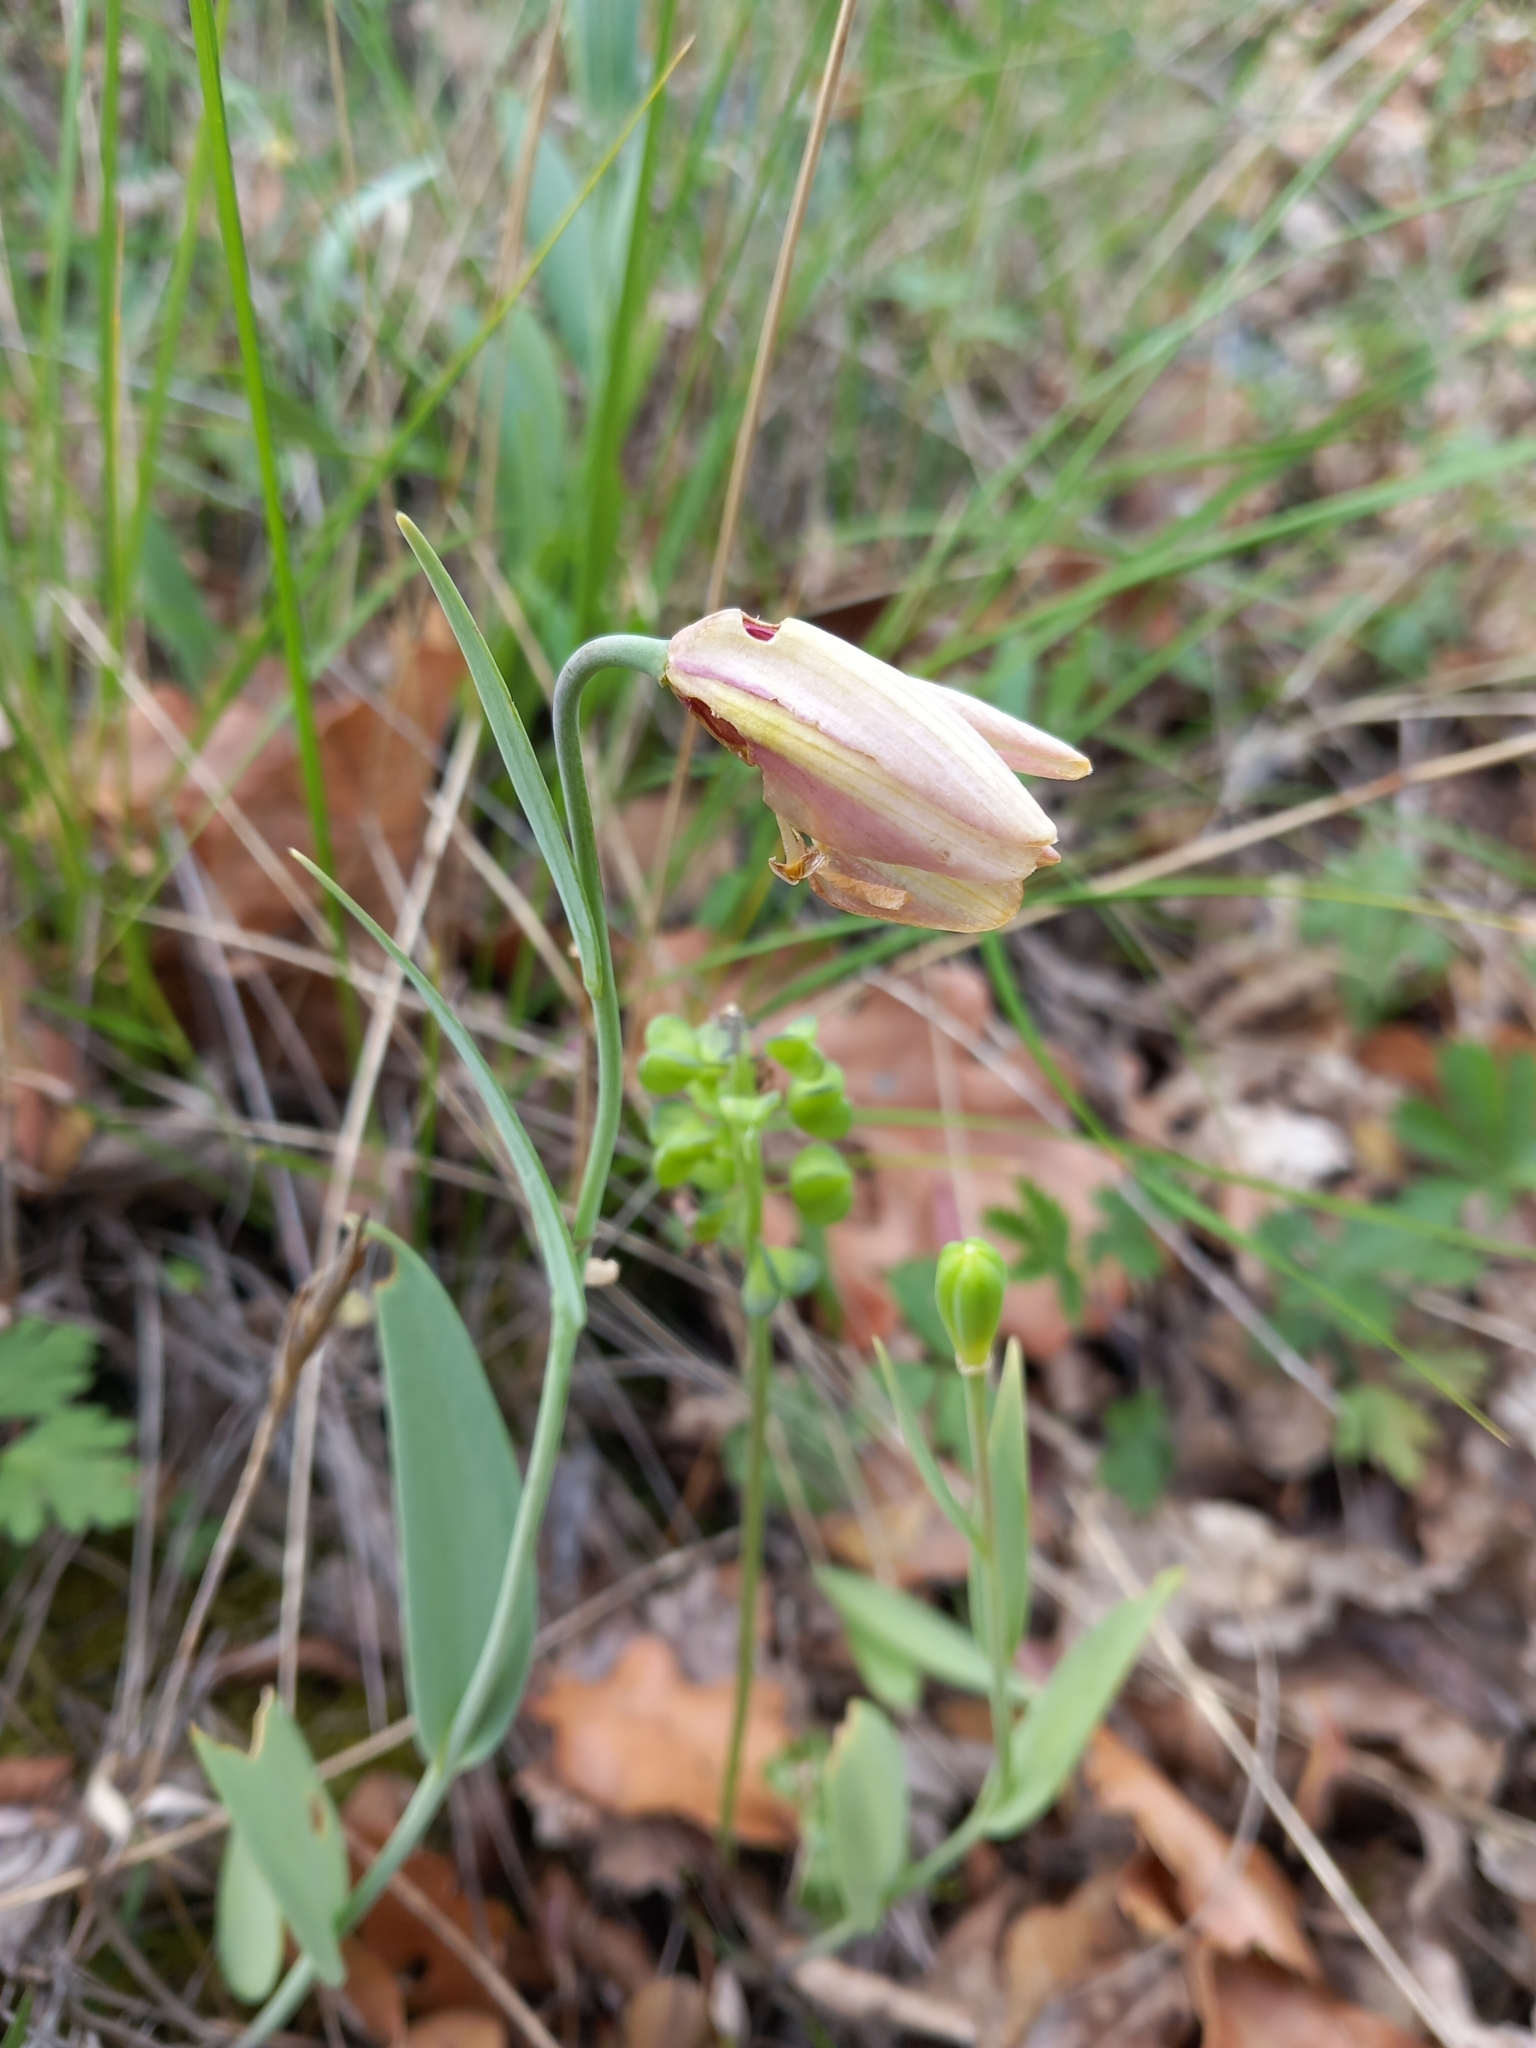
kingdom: Plantae
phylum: Tracheophyta
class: Liliopsida
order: Liliales
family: Liliaceae
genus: Fritillaria
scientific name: Fritillaria gussichiae
